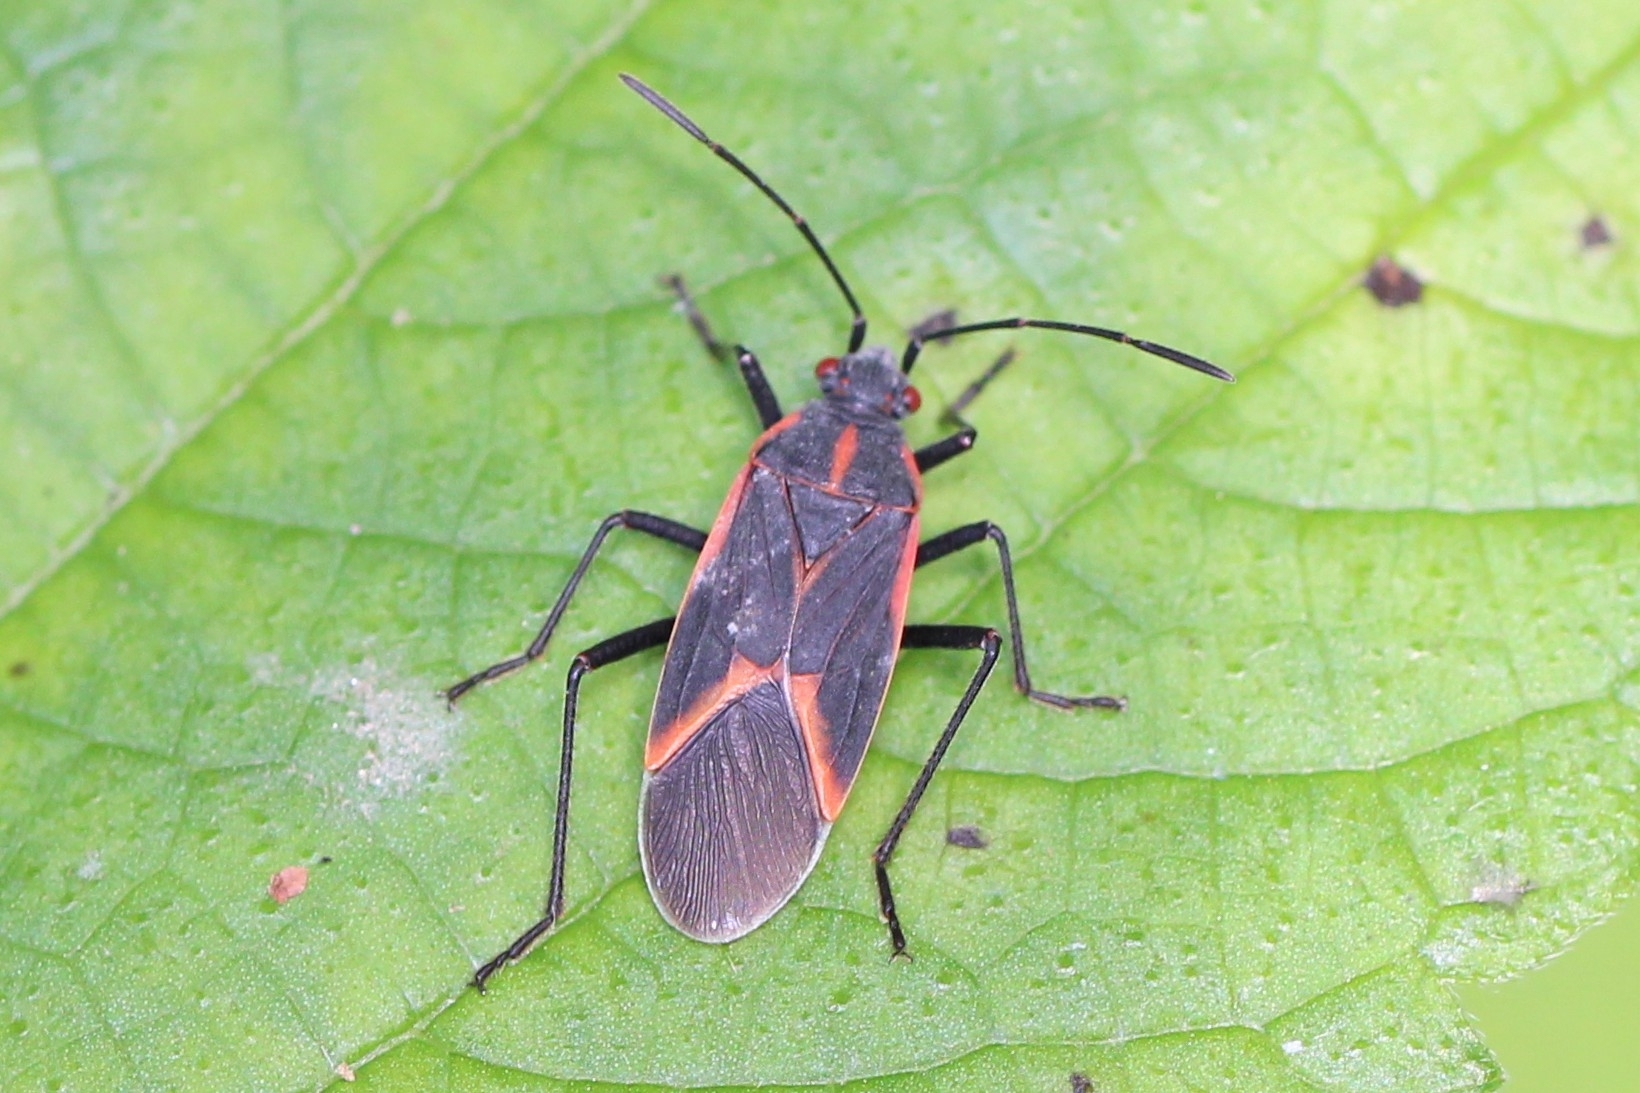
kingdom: Animalia
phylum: Arthropoda
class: Insecta
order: Hemiptera
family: Rhopalidae
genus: Boisea
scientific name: Boisea trivittata
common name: Boxelder bug
